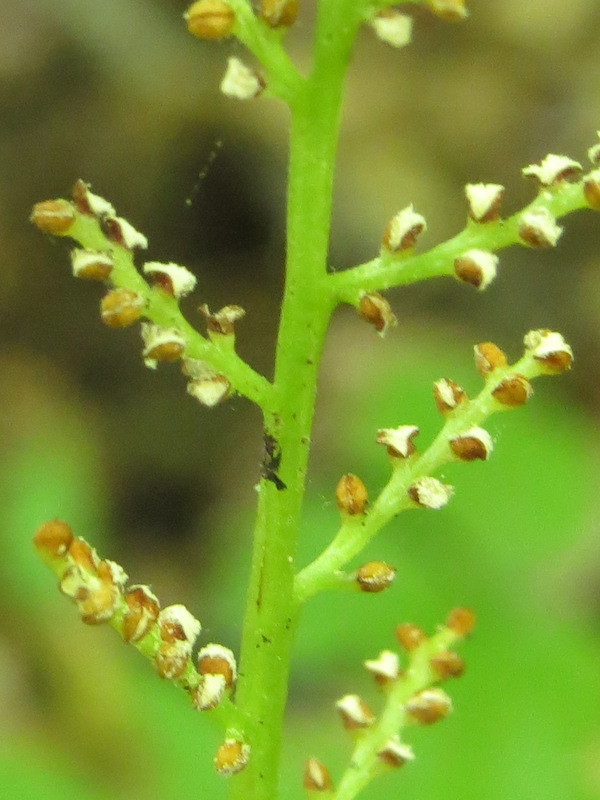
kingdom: Plantae
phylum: Tracheophyta
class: Polypodiopsida
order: Ophioglossales
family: Ophioglossaceae
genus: Botrypus
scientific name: Botrypus virginianus
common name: Common grapefern
